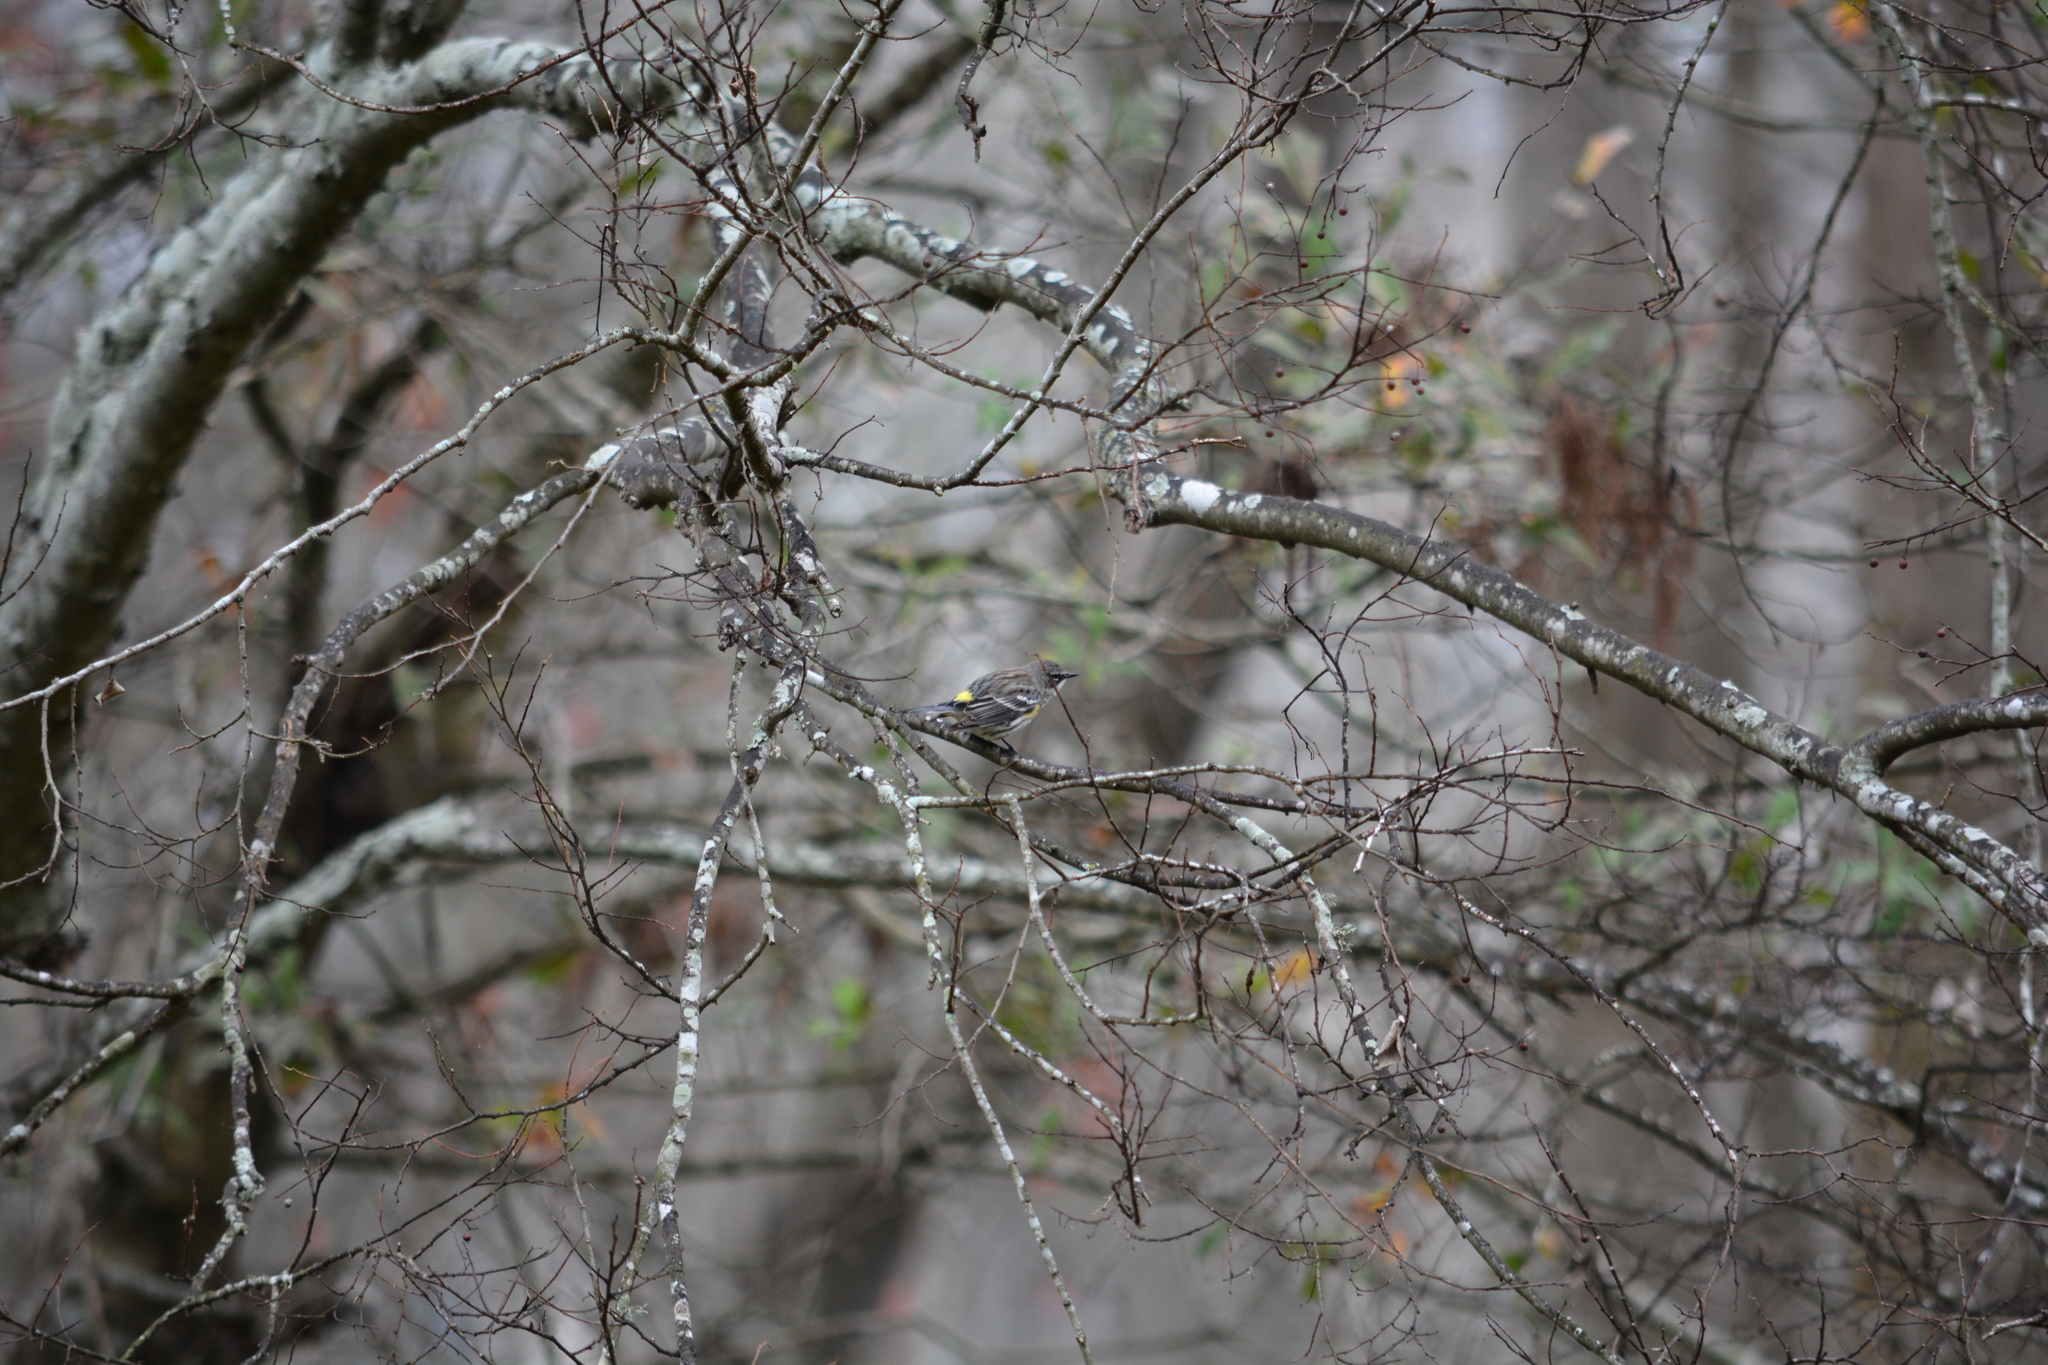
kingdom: Animalia
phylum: Chordata
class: Aves
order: Passeriformes
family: Parulidae
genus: Setophaga
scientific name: Setophaga coronata
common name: Myrtle warbler
